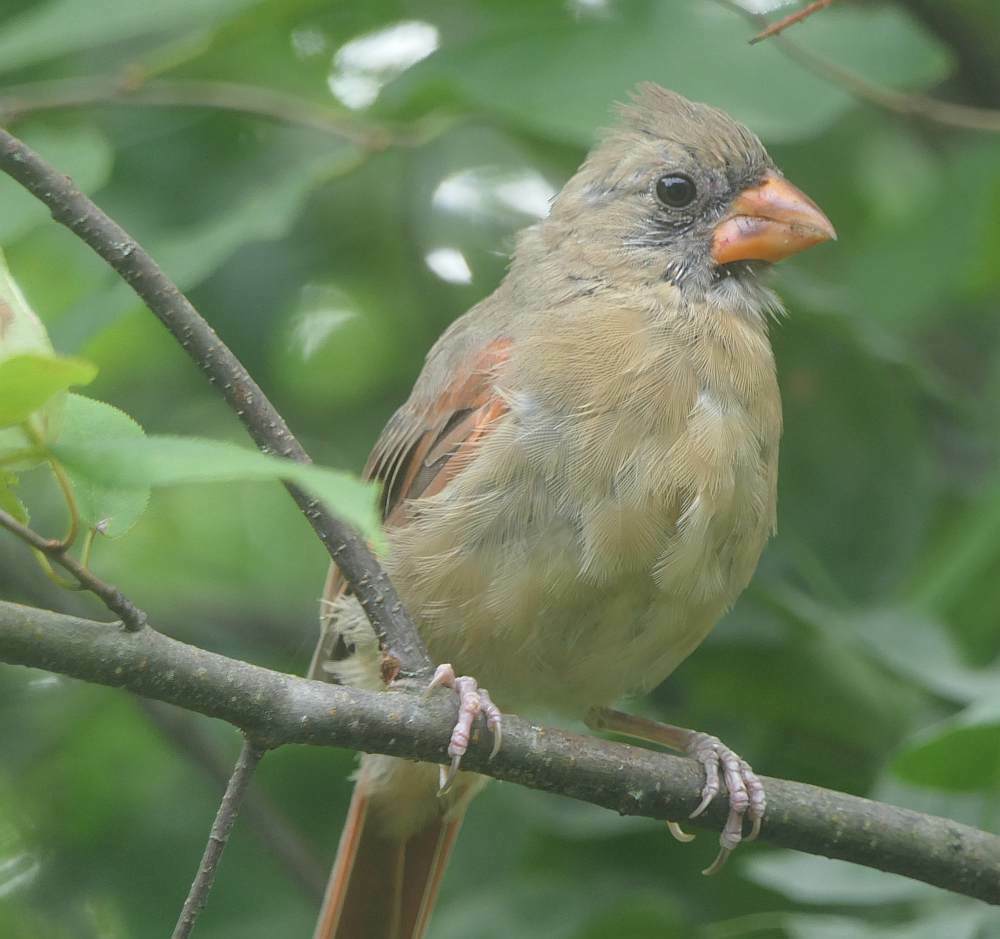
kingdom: Animalia
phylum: Chordata
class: Aves
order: Passeriformes
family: Cardinalidae
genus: Cardinalis
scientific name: Cardinalis cardinalis
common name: Northern cardinal
